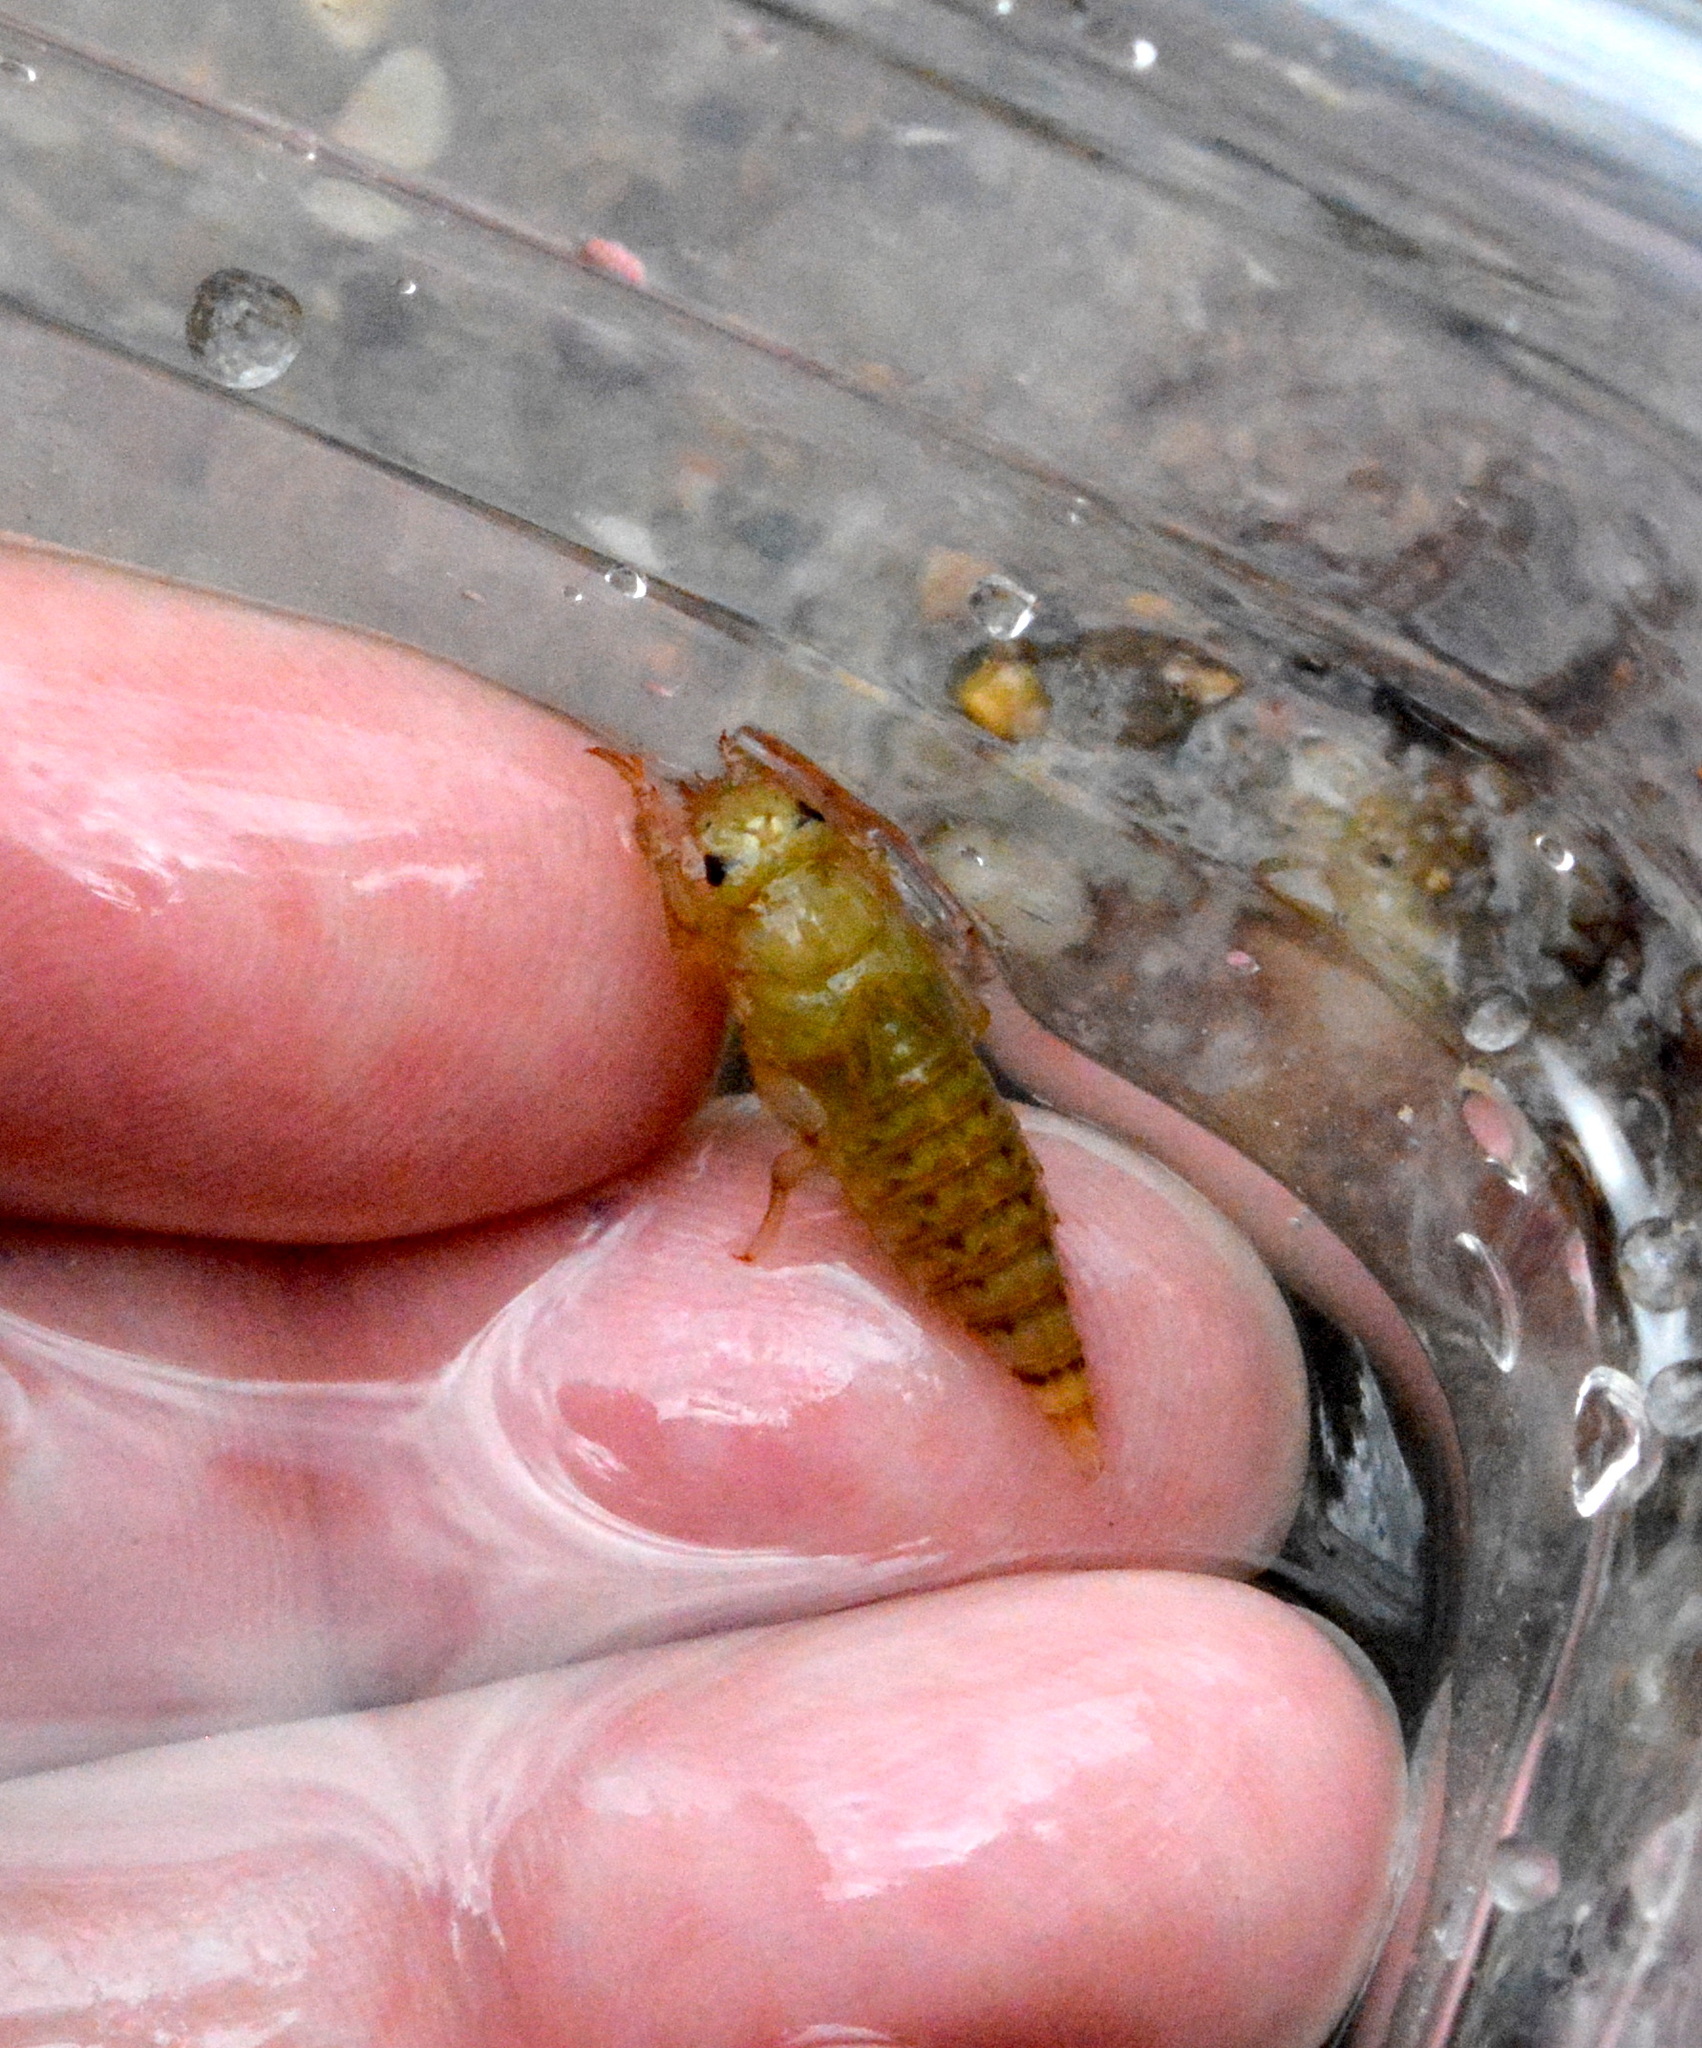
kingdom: Animalia
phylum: Arthropoda
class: Insecta
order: Odonata
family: Gomphidae
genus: Progomphus
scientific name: Progomphus obscurus
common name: Common sanddragon
